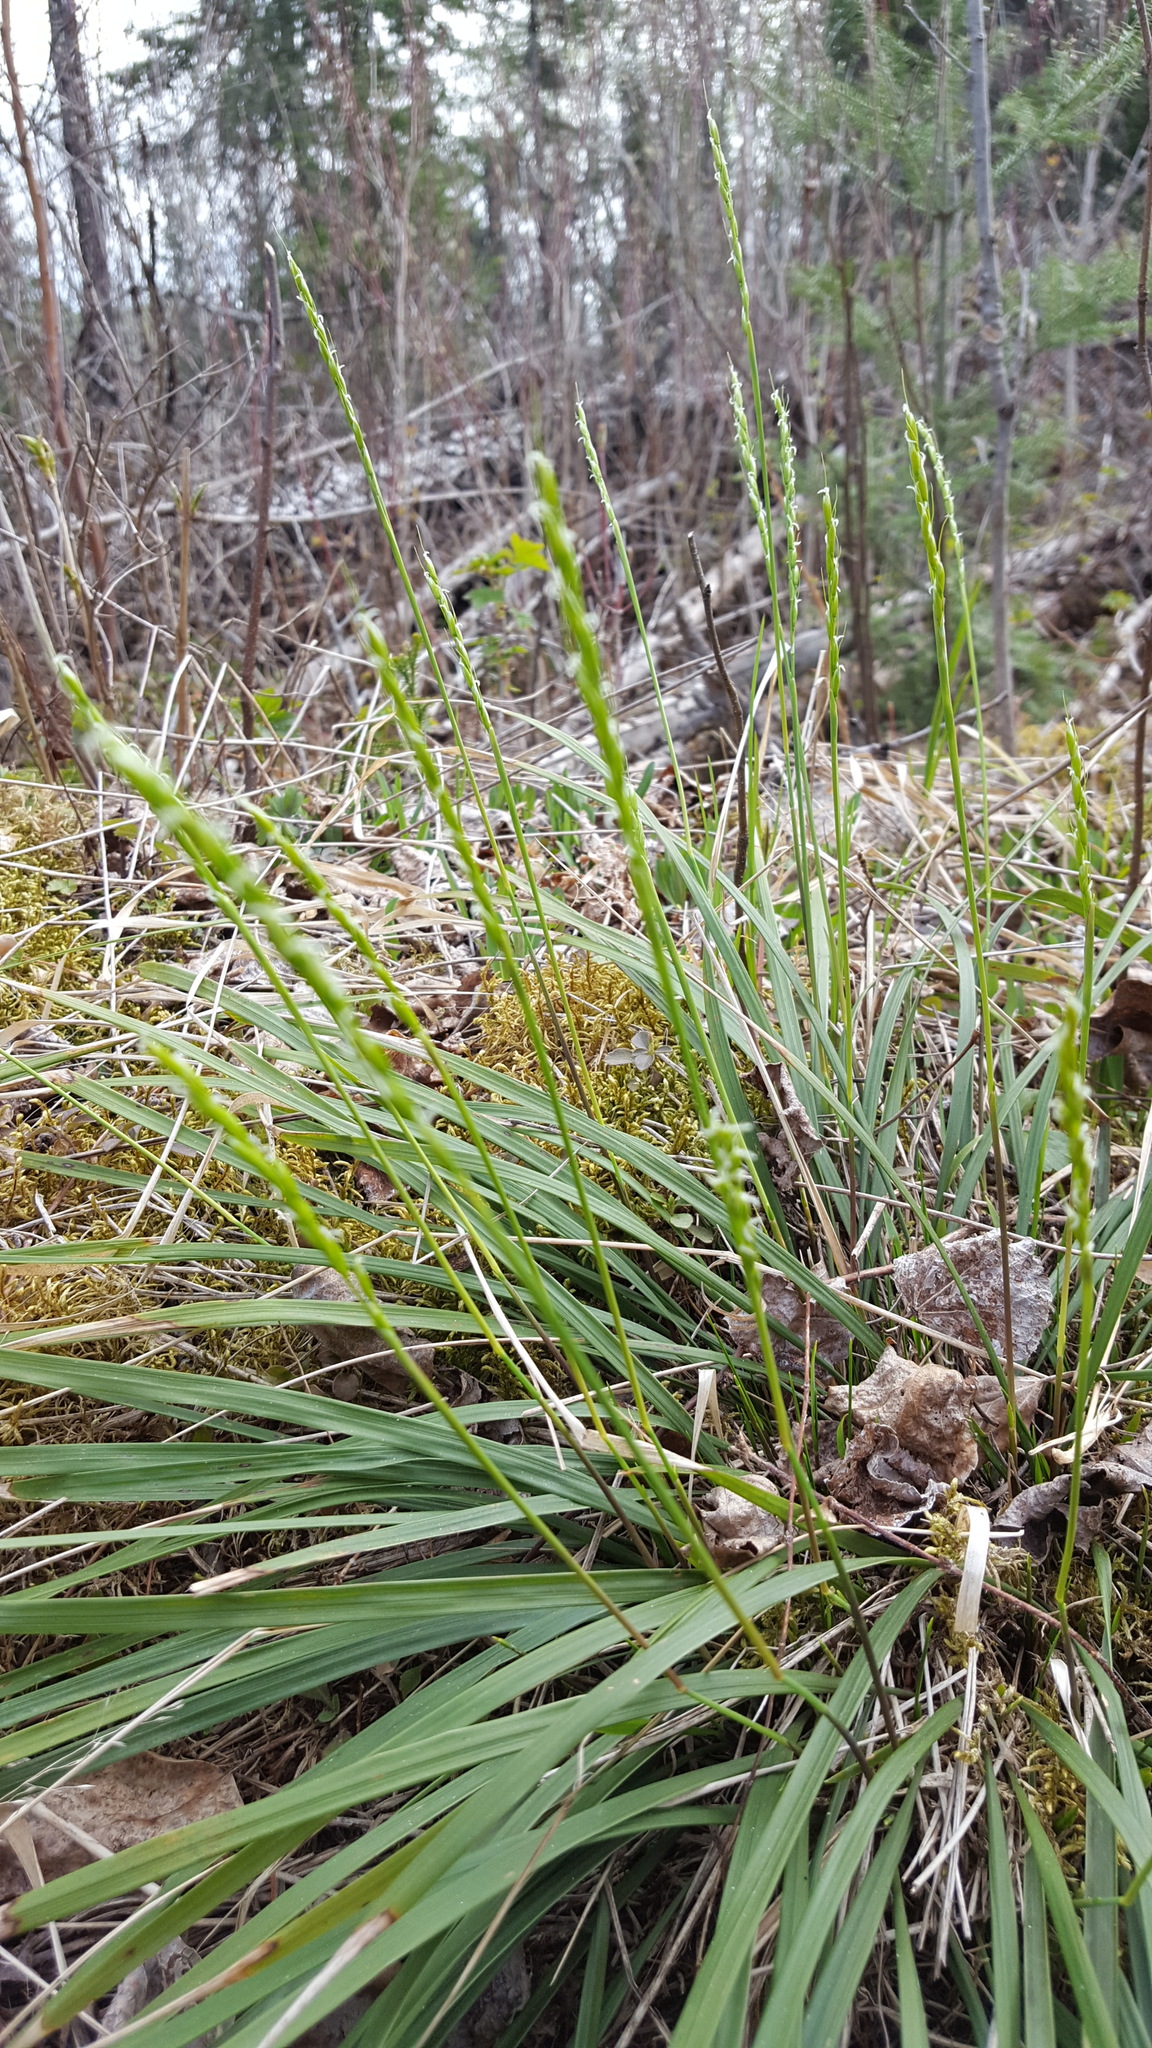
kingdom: Plantae
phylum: Tracheophyta
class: Liliopsida
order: Poales
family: Poaceae
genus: Oryzopsis
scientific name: Oryzopsis asperifolia
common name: Rough-leaved mountain rice
